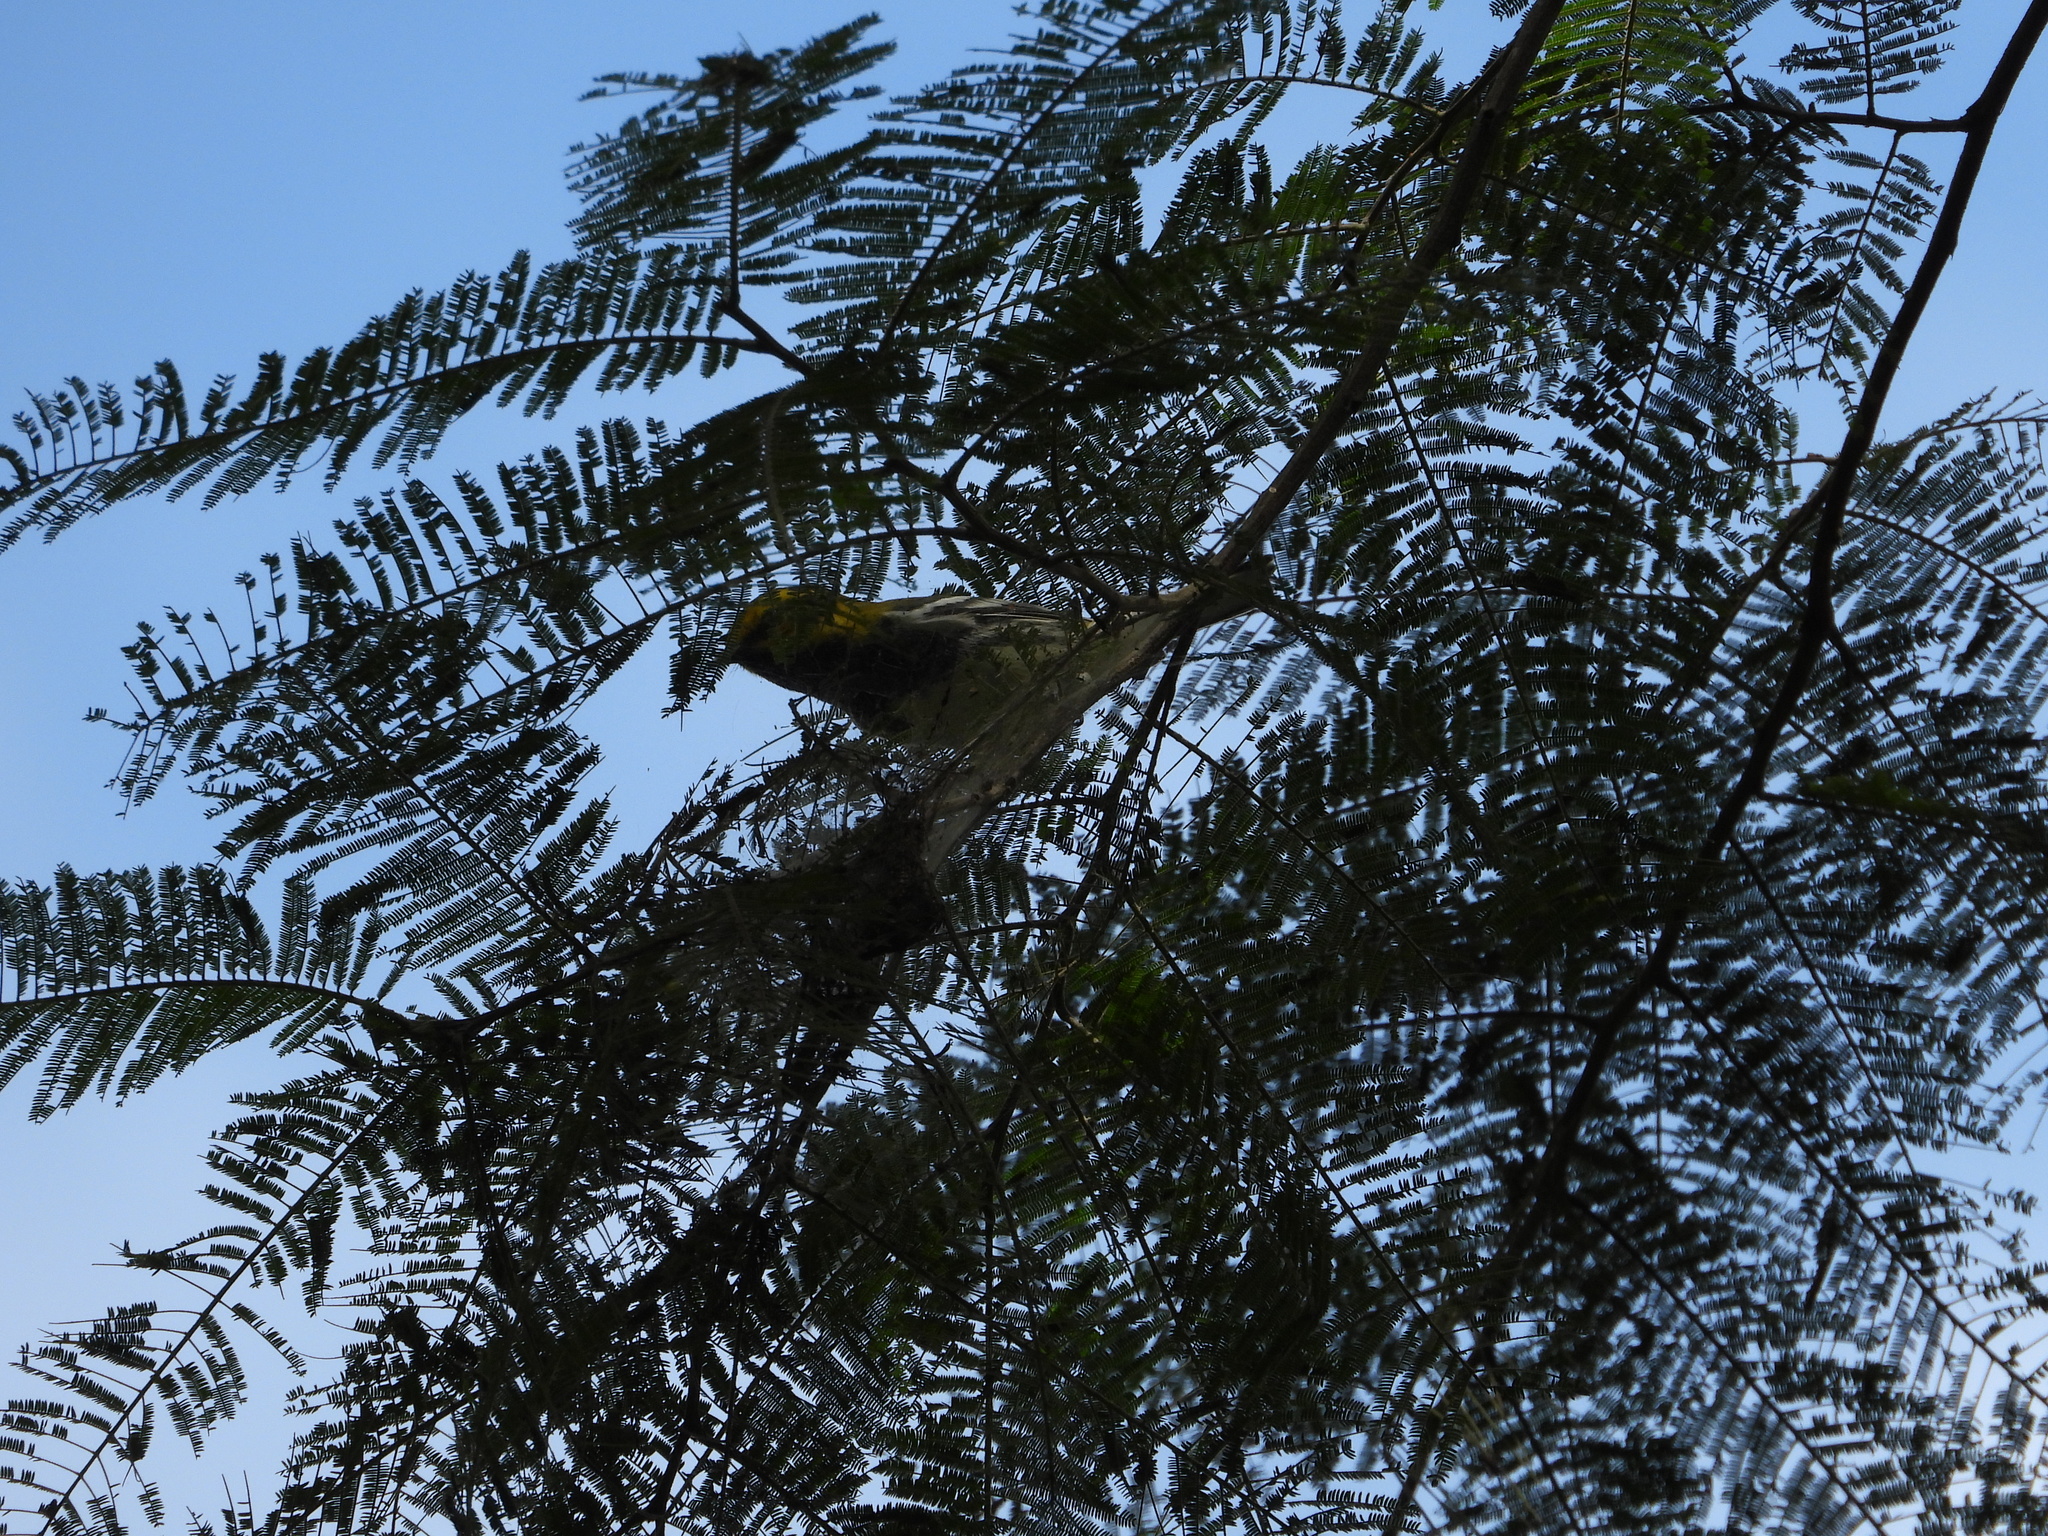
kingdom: Animalia
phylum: Chordata
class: Aves
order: Passeriformes
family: Parulidae
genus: Setophaga
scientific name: Setophaga virens
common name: Black-throated green warbler
